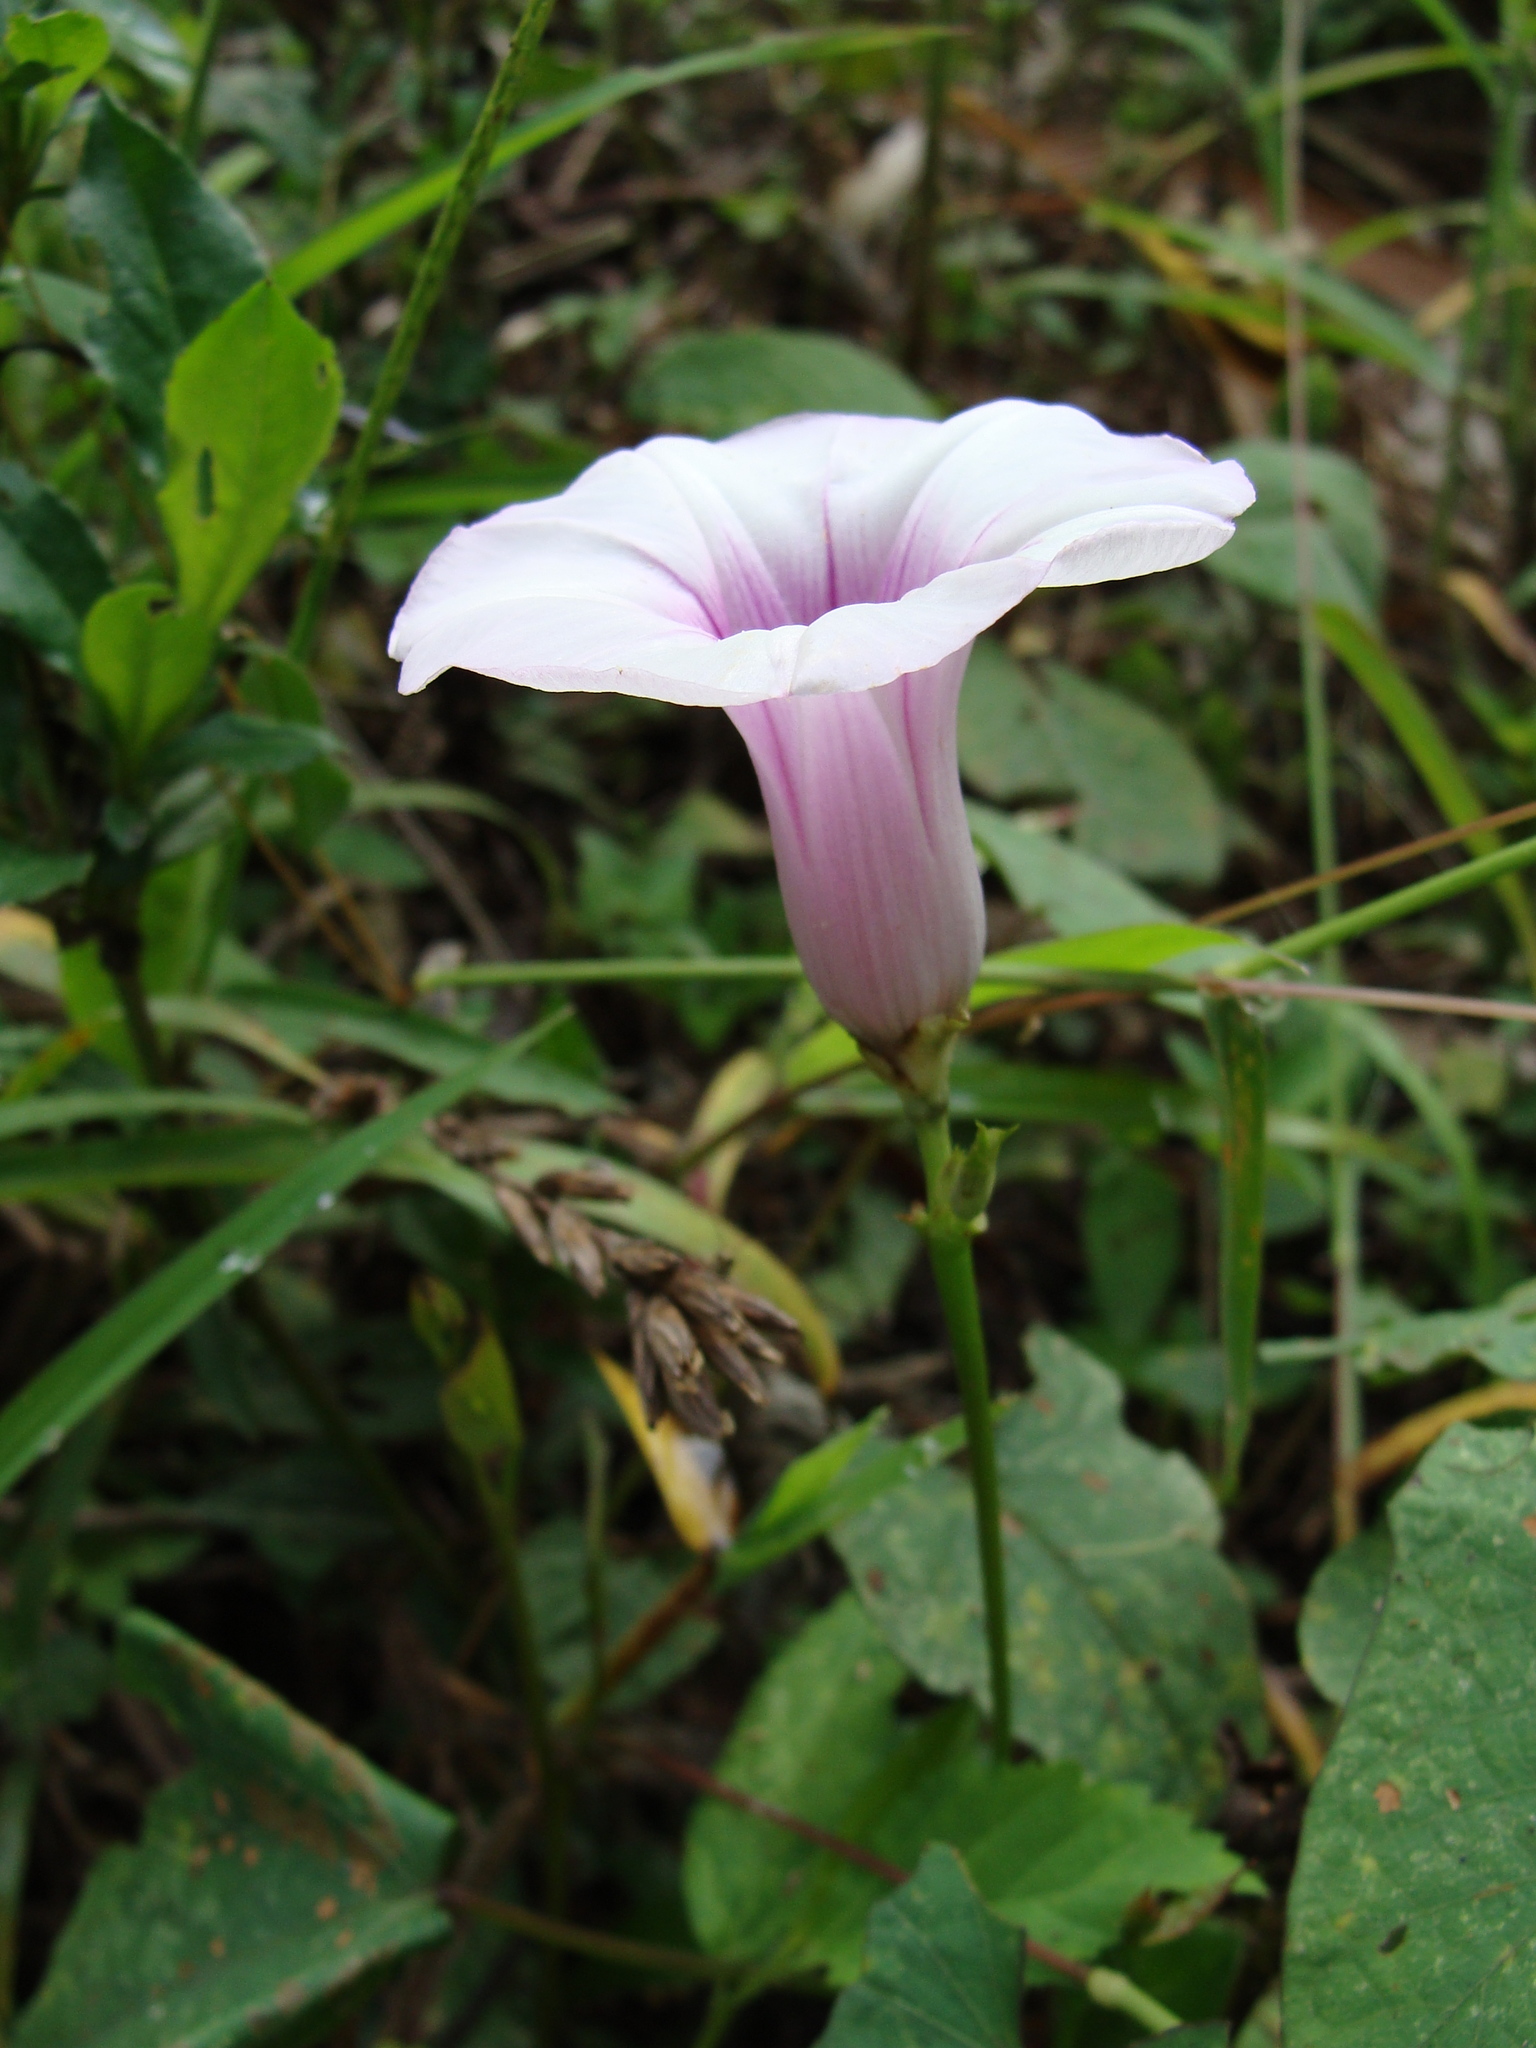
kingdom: Plantae
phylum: Tracheophyta
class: Magnoliopsida
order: Solanales
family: Convolvulaceae
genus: Ipomoea
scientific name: Ipomoea batatas
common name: Sweet-potato
